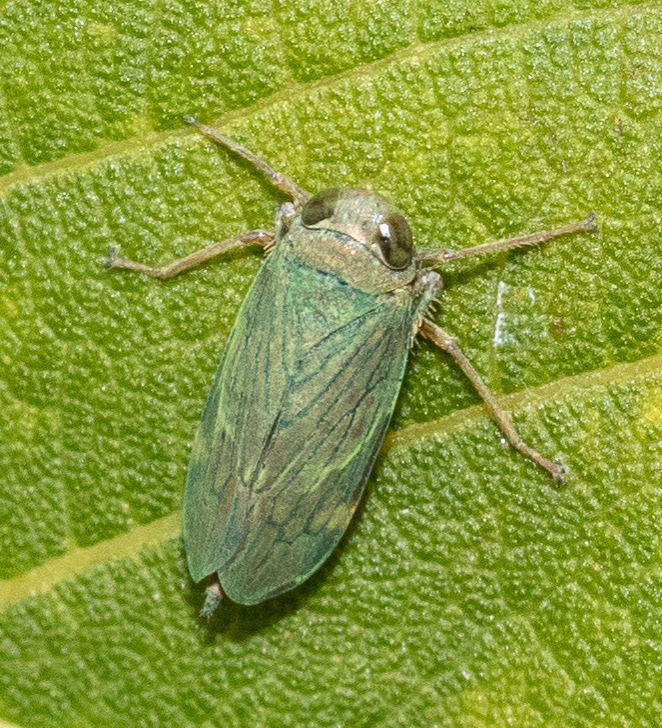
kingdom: Animalia
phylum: Arthropoda
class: Insecta
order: Hemiptera
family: Cicadellidae
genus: Jikradia
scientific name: Jikradia olitoria
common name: Coppery leafhopper
